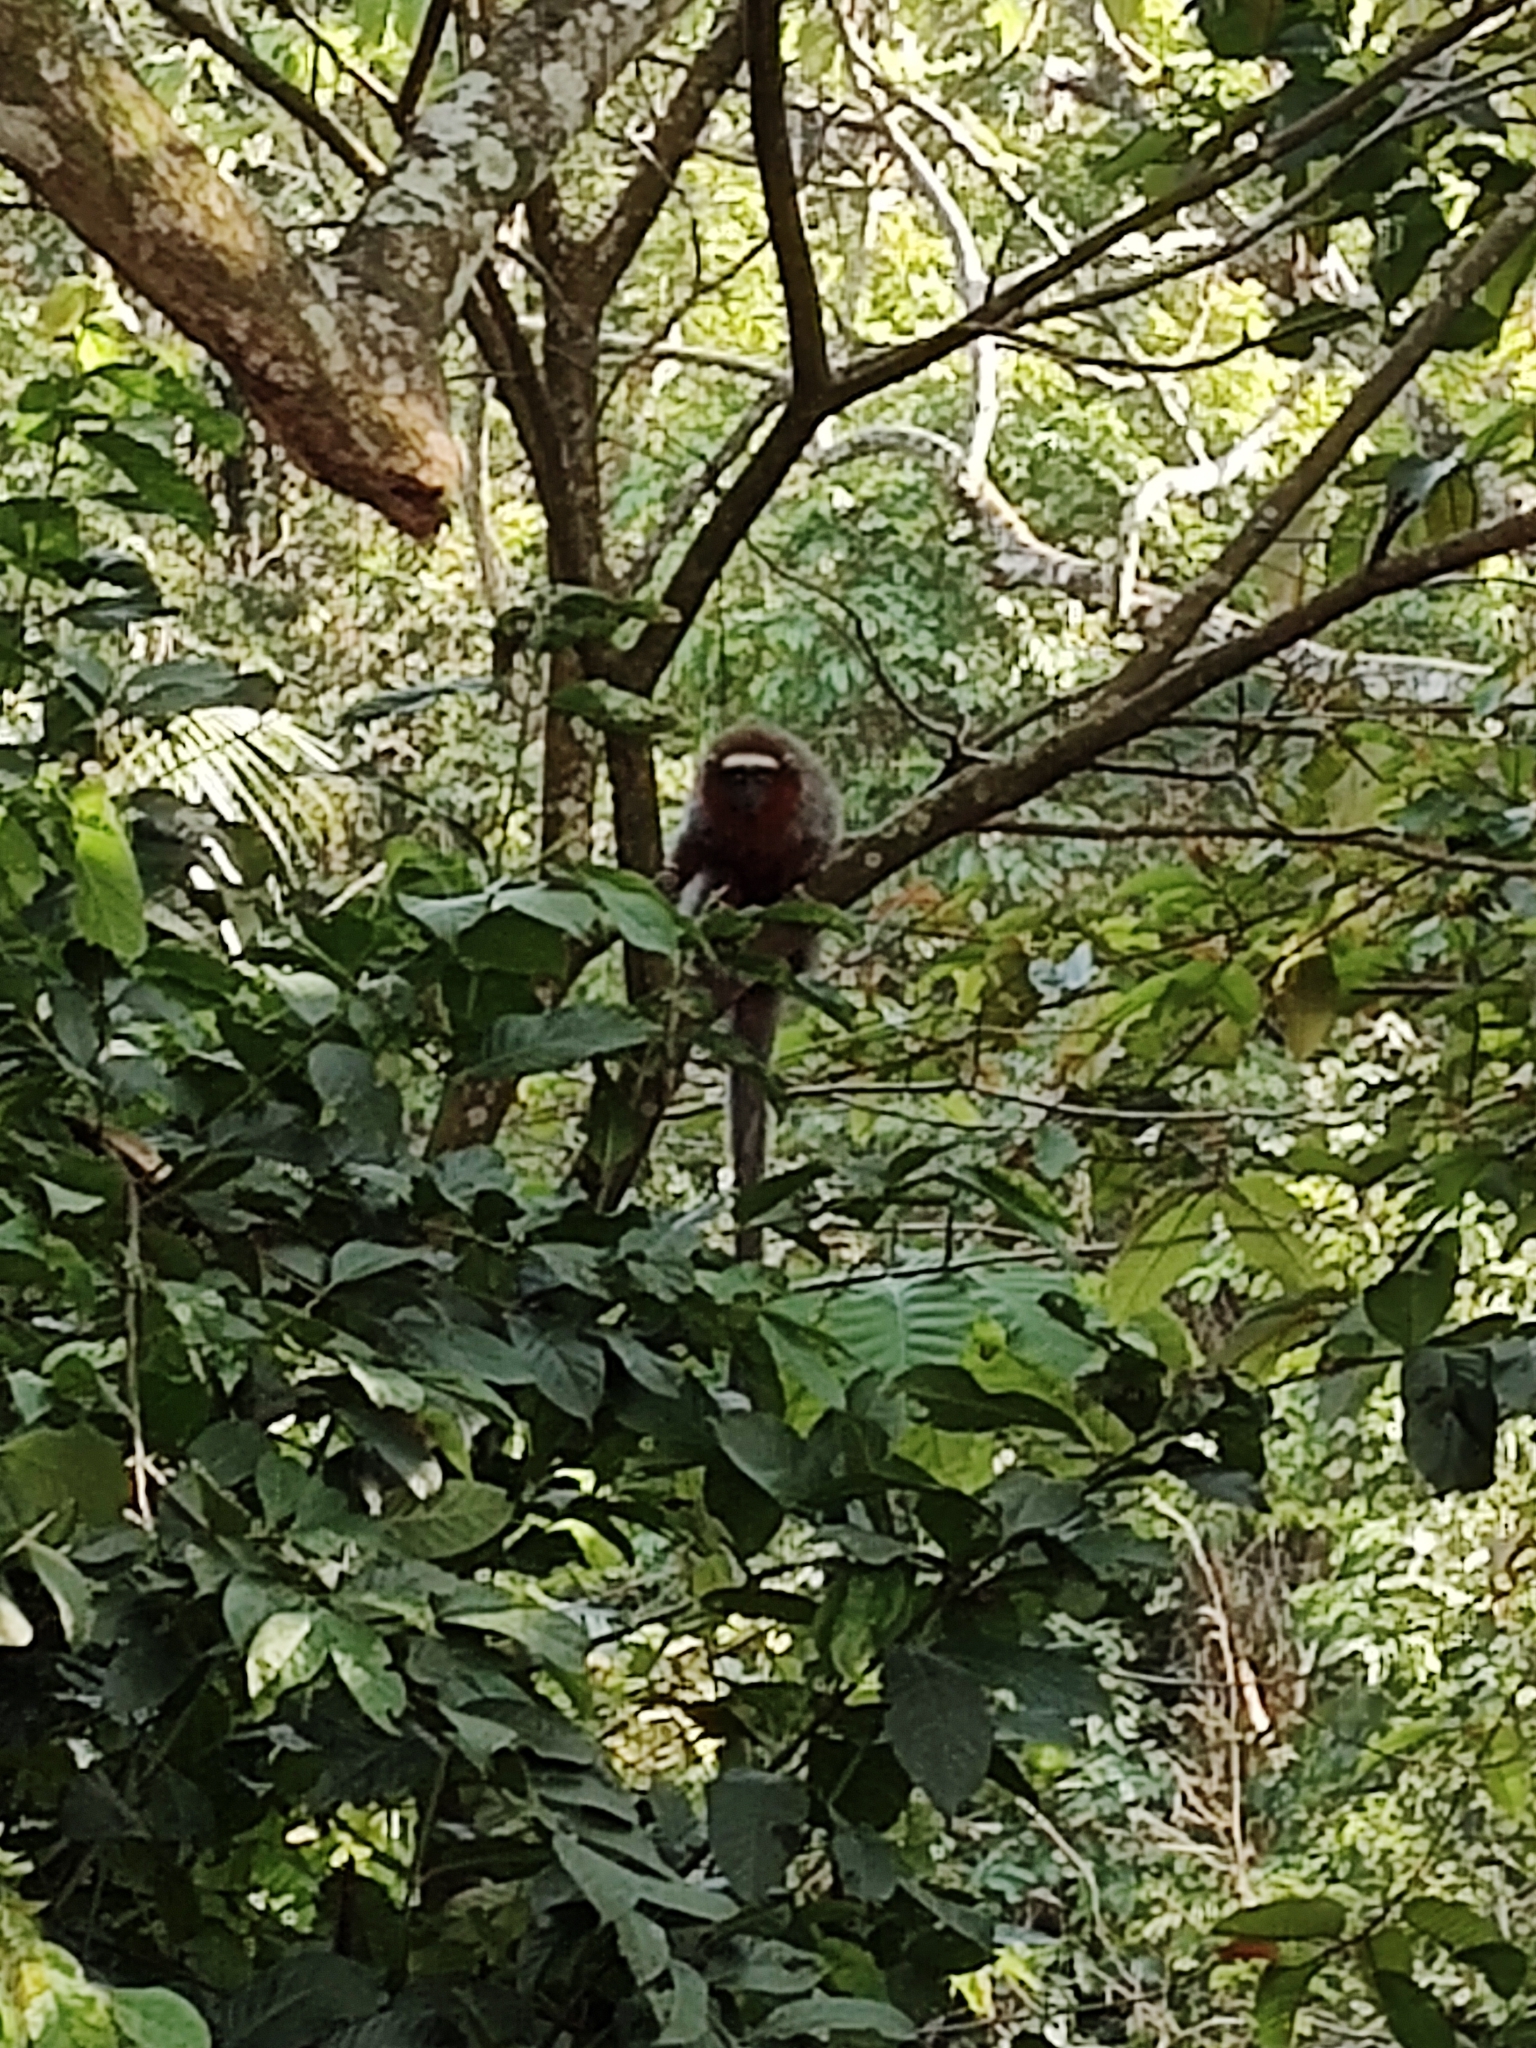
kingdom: Animalia
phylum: Chordata
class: Mammalia
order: Primates
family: Pitheciidae
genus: Plecturocebus
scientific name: Plecturocebus ornatus
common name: Ornate titi
